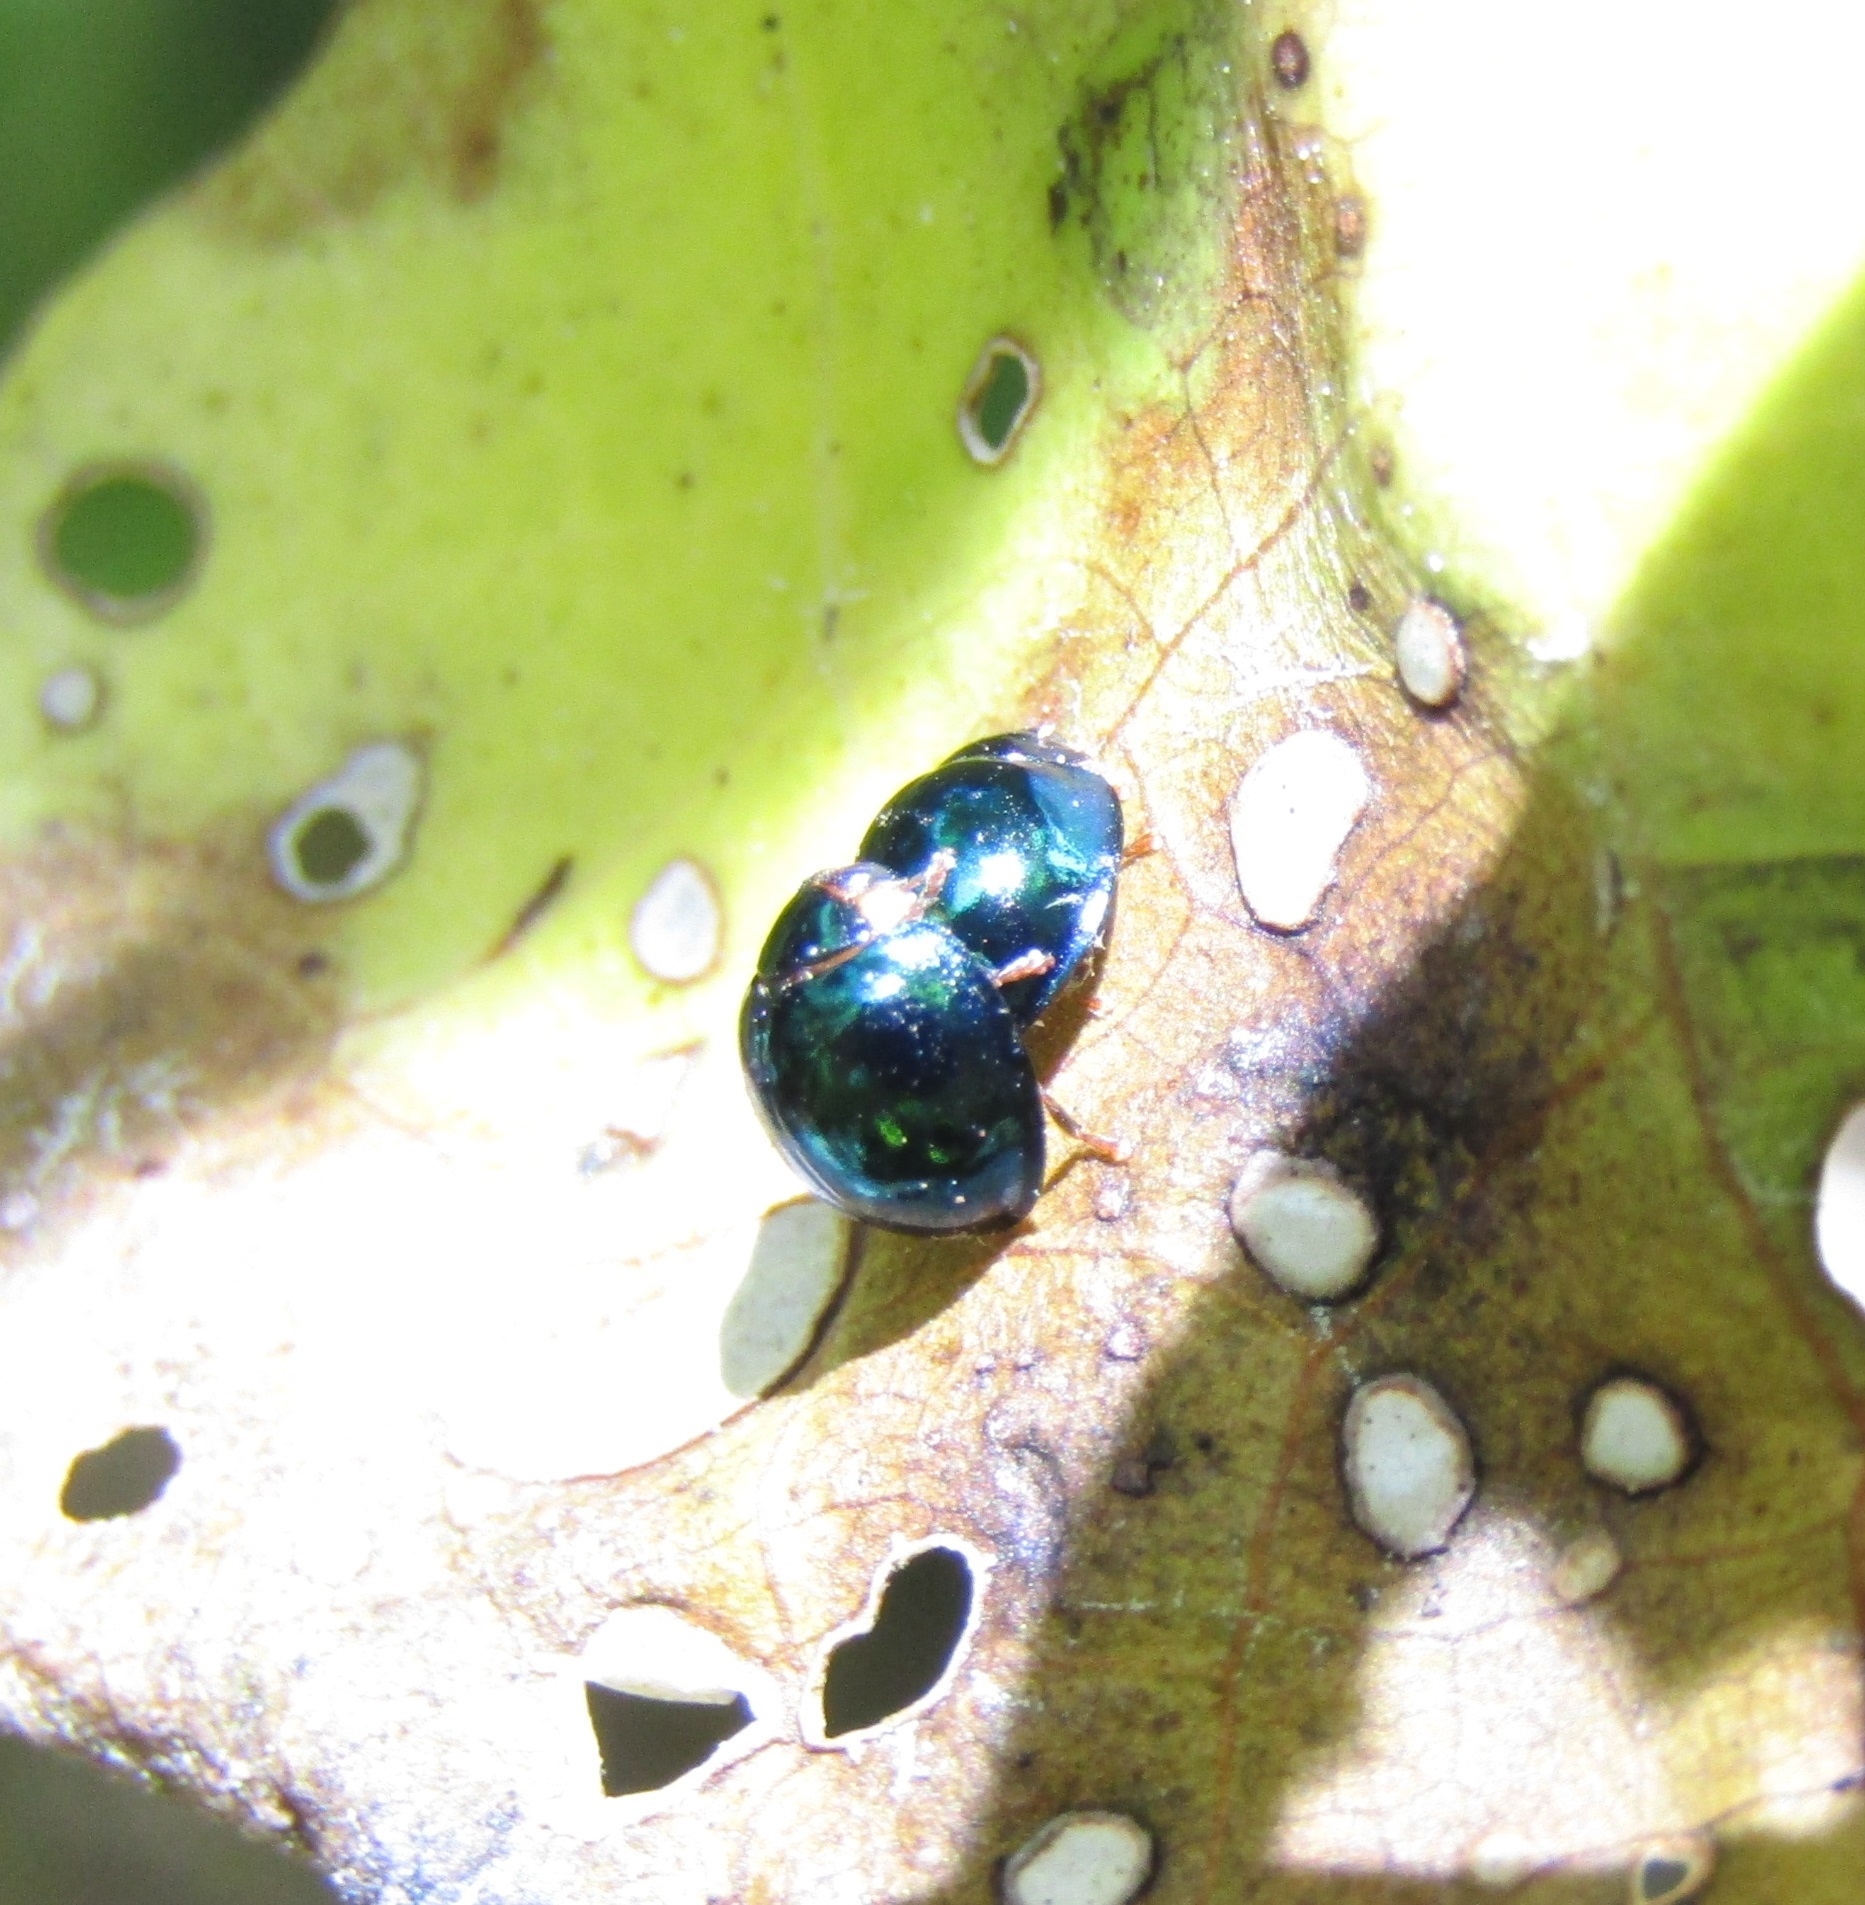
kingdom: Animalia
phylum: Arthropoda
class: Insecta
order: Coleoptera
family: Coccinellidae
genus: Halmus
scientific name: Halmus chalybeus
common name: Steel blue ladybird beetle
